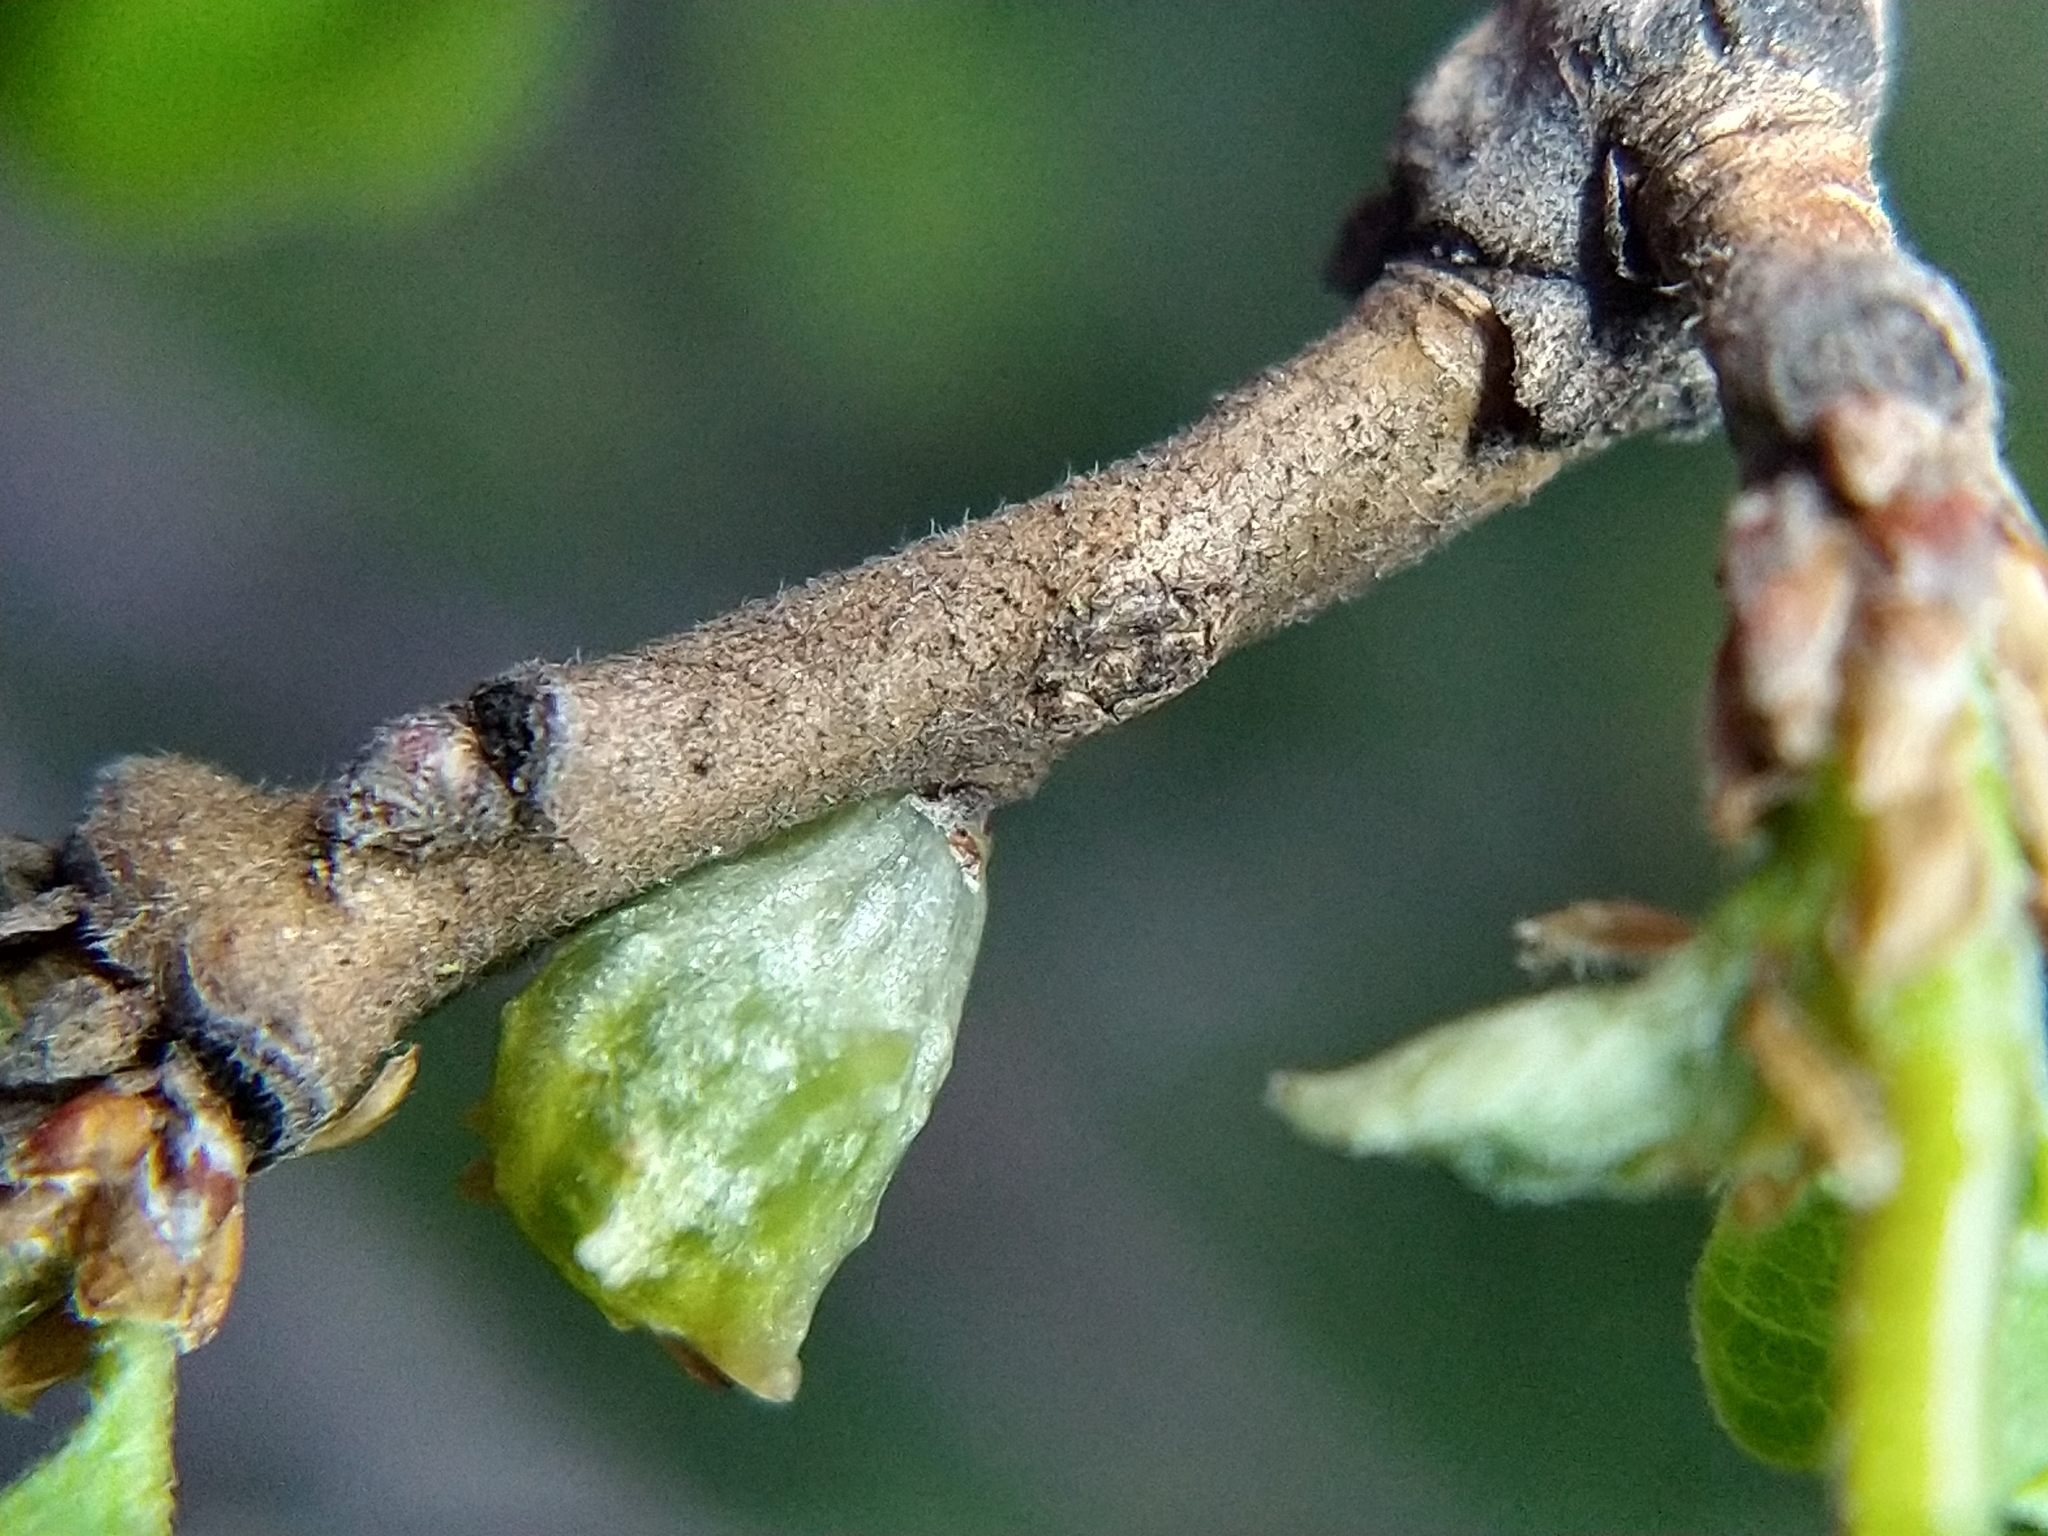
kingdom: Animalia
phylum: Arthropoda
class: Insecta
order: Hymenoptera
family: Cynipidae
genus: Cynips
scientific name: Cynips douglasi
